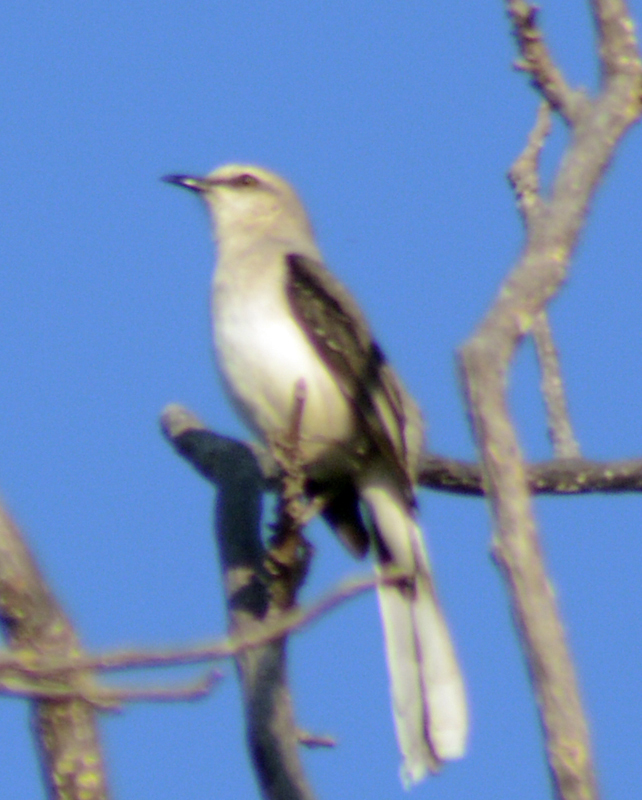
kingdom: Animalia
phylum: Chordata
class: Aves
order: Passeriformes
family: Mimidae
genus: Mimus
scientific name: Mimus gilvus
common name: Tropical mockingbird
